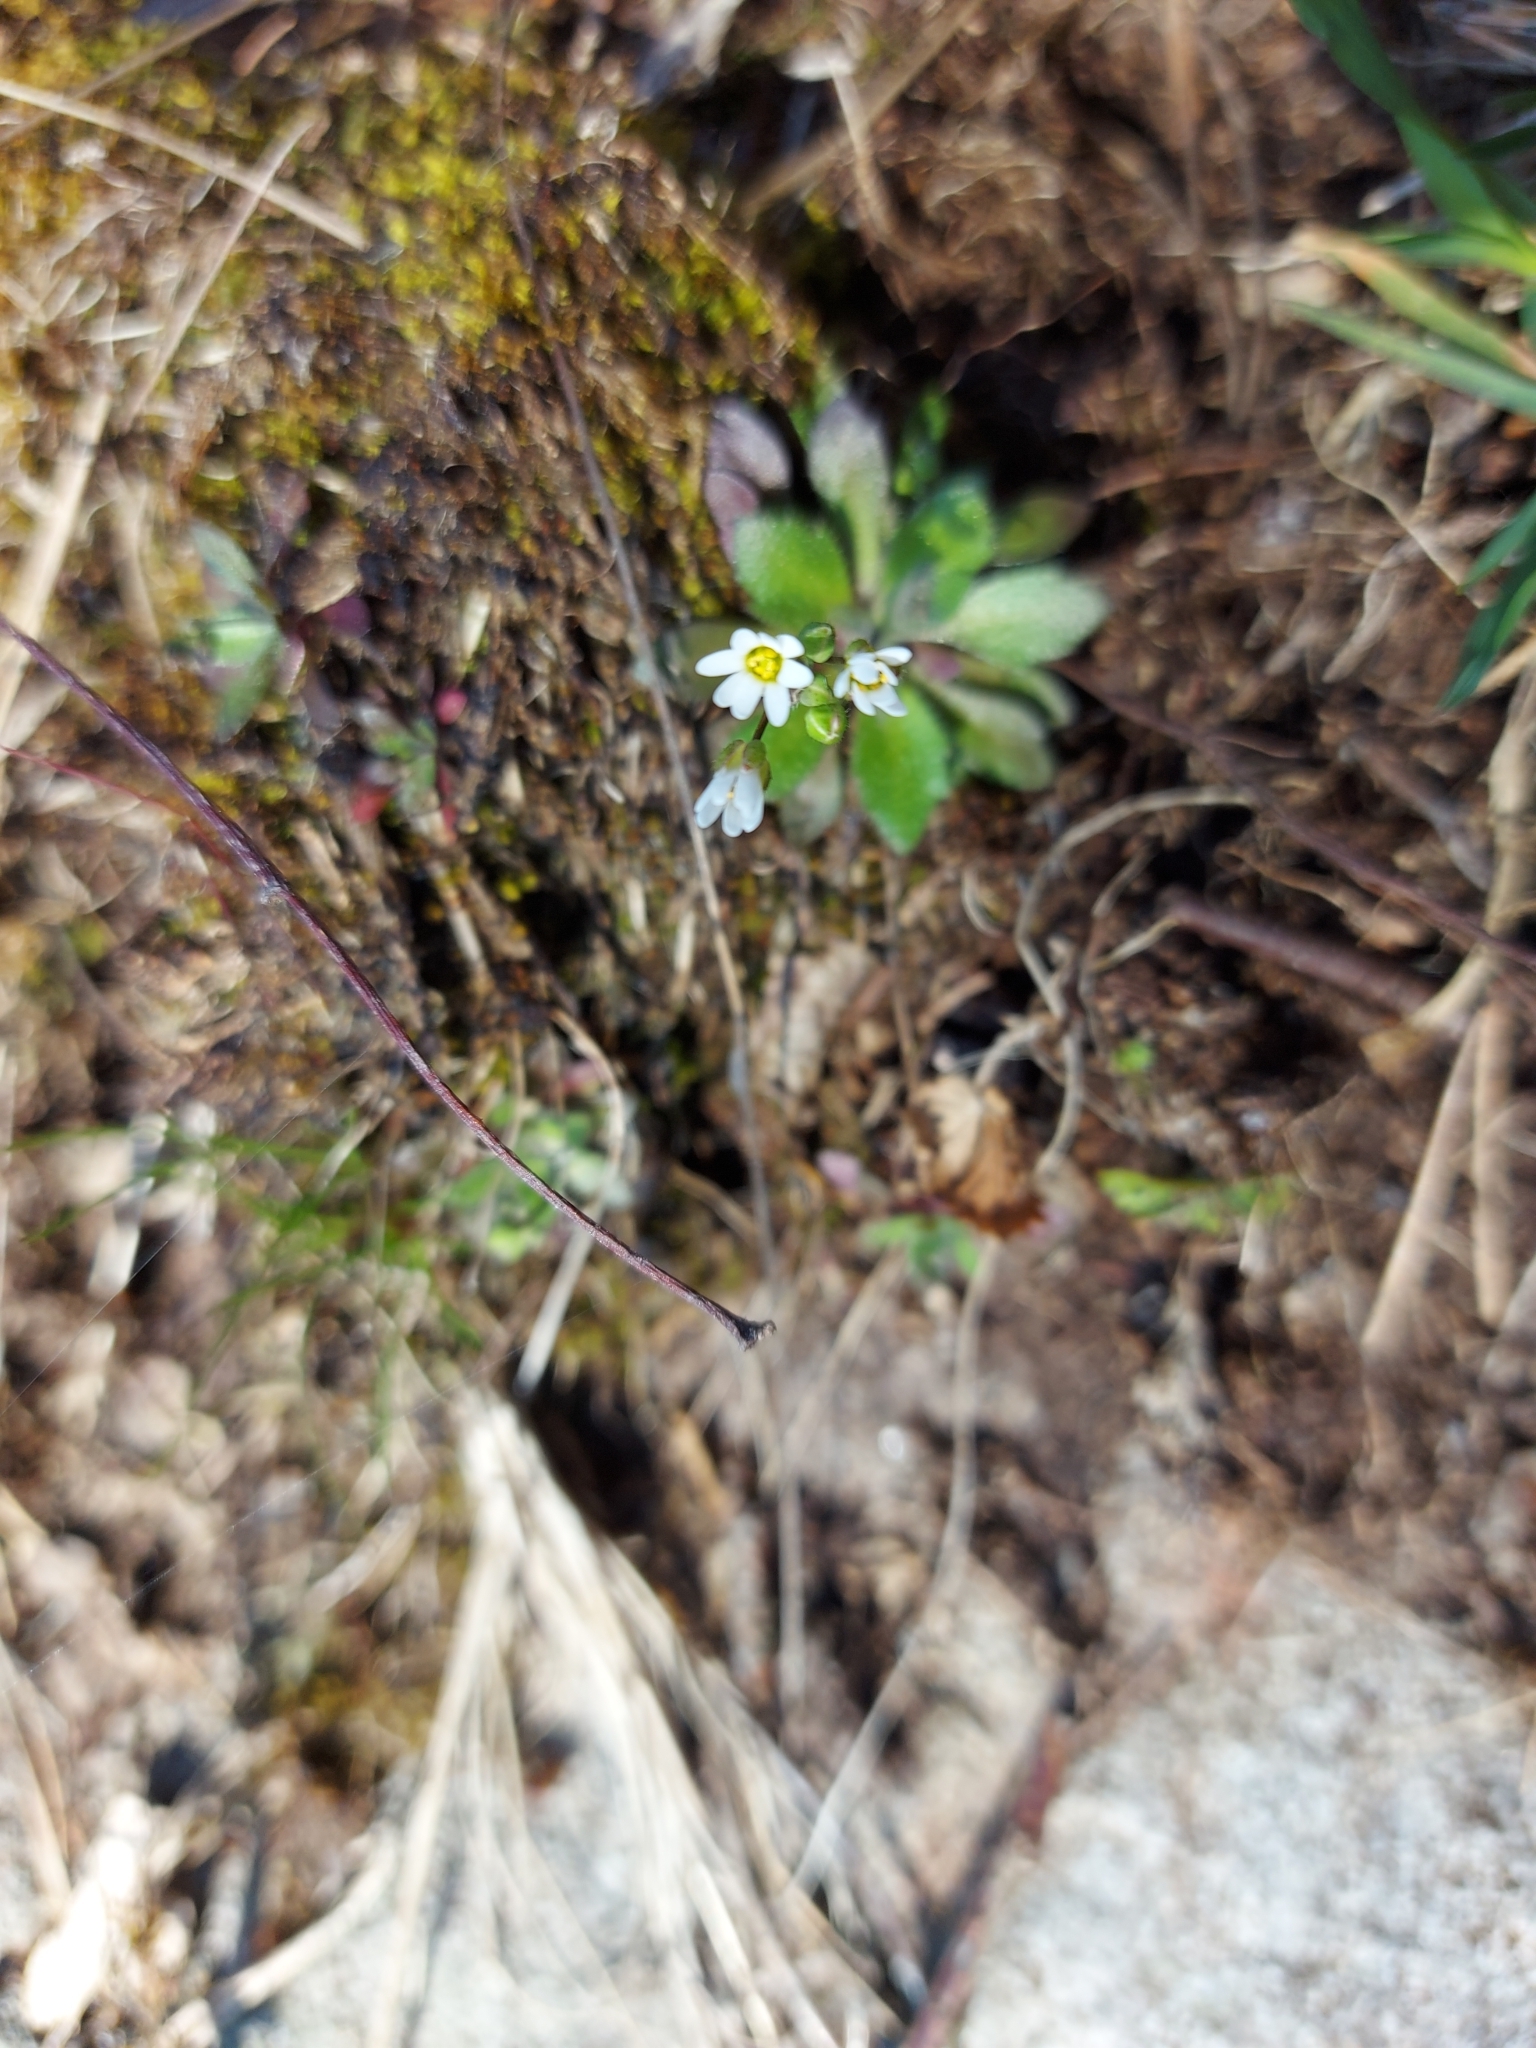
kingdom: Plantae
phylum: Tracheophyta
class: Magnoliopsida
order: Brassicales
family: Brassicaceae
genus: Draba
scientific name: Draba verna
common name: Spring draba
